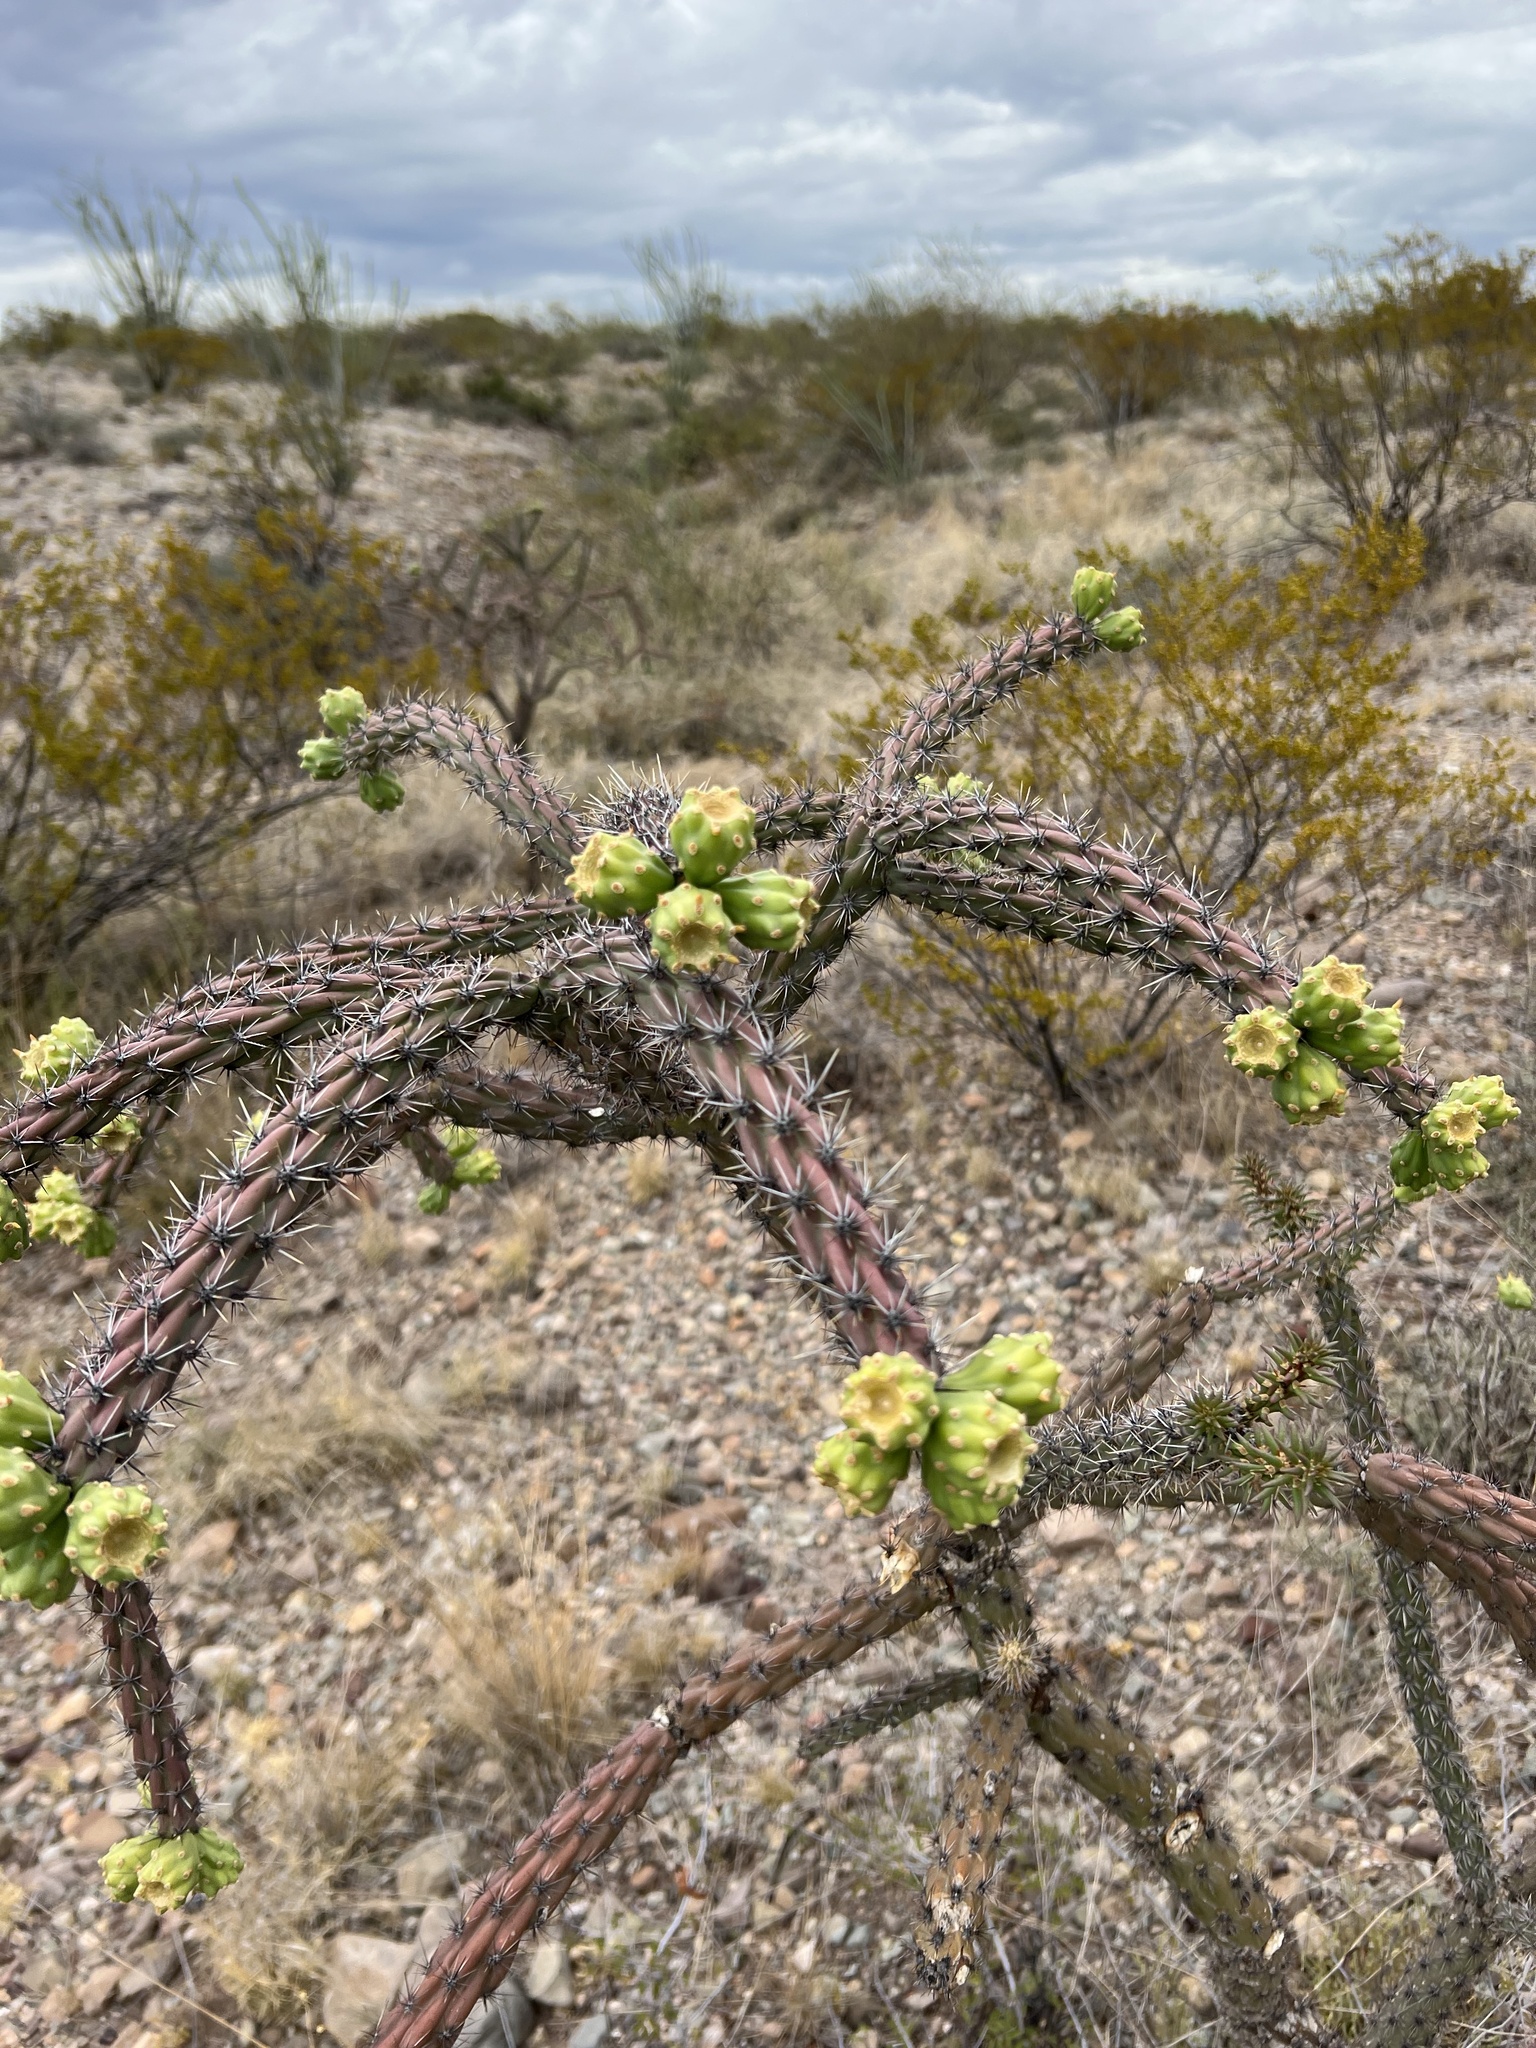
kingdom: Plantae
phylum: Tracheophyta
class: Magnoliopsida
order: Caryophyllales
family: Cactaceae
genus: Cylindropuntia
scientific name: Cylindropuntia thurberi
